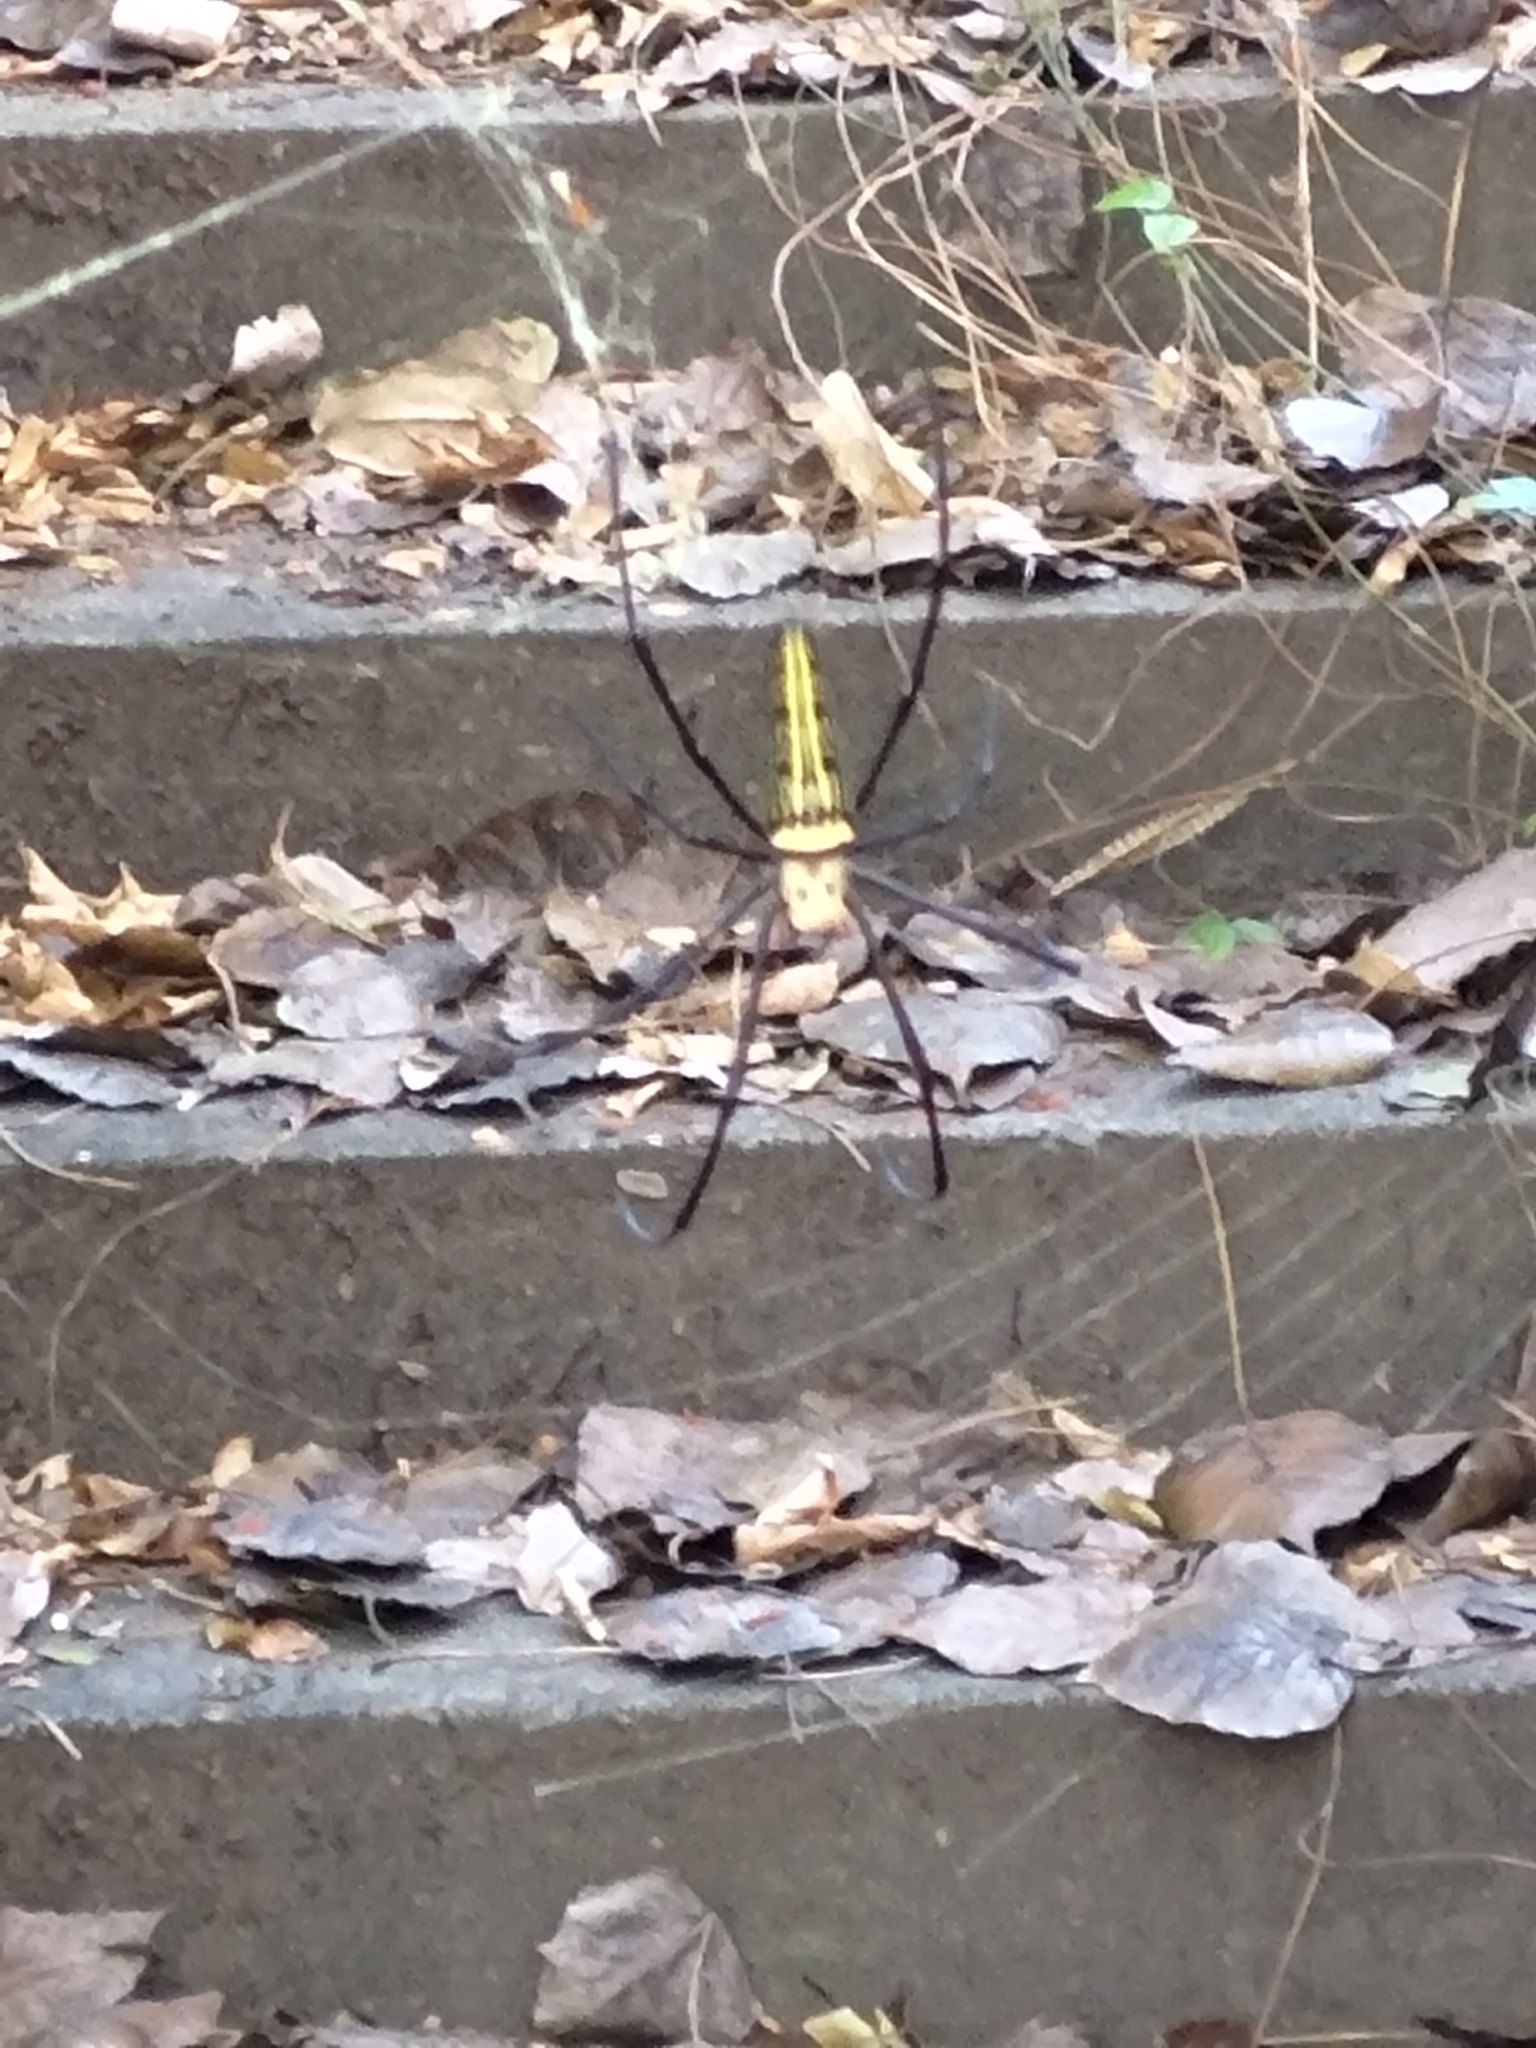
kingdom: Animalia
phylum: Arthropoda
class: Arachnida
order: Araneae
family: Araneidae
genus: Nephila
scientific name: Nephila pilipes
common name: Giant golden orb weaver
